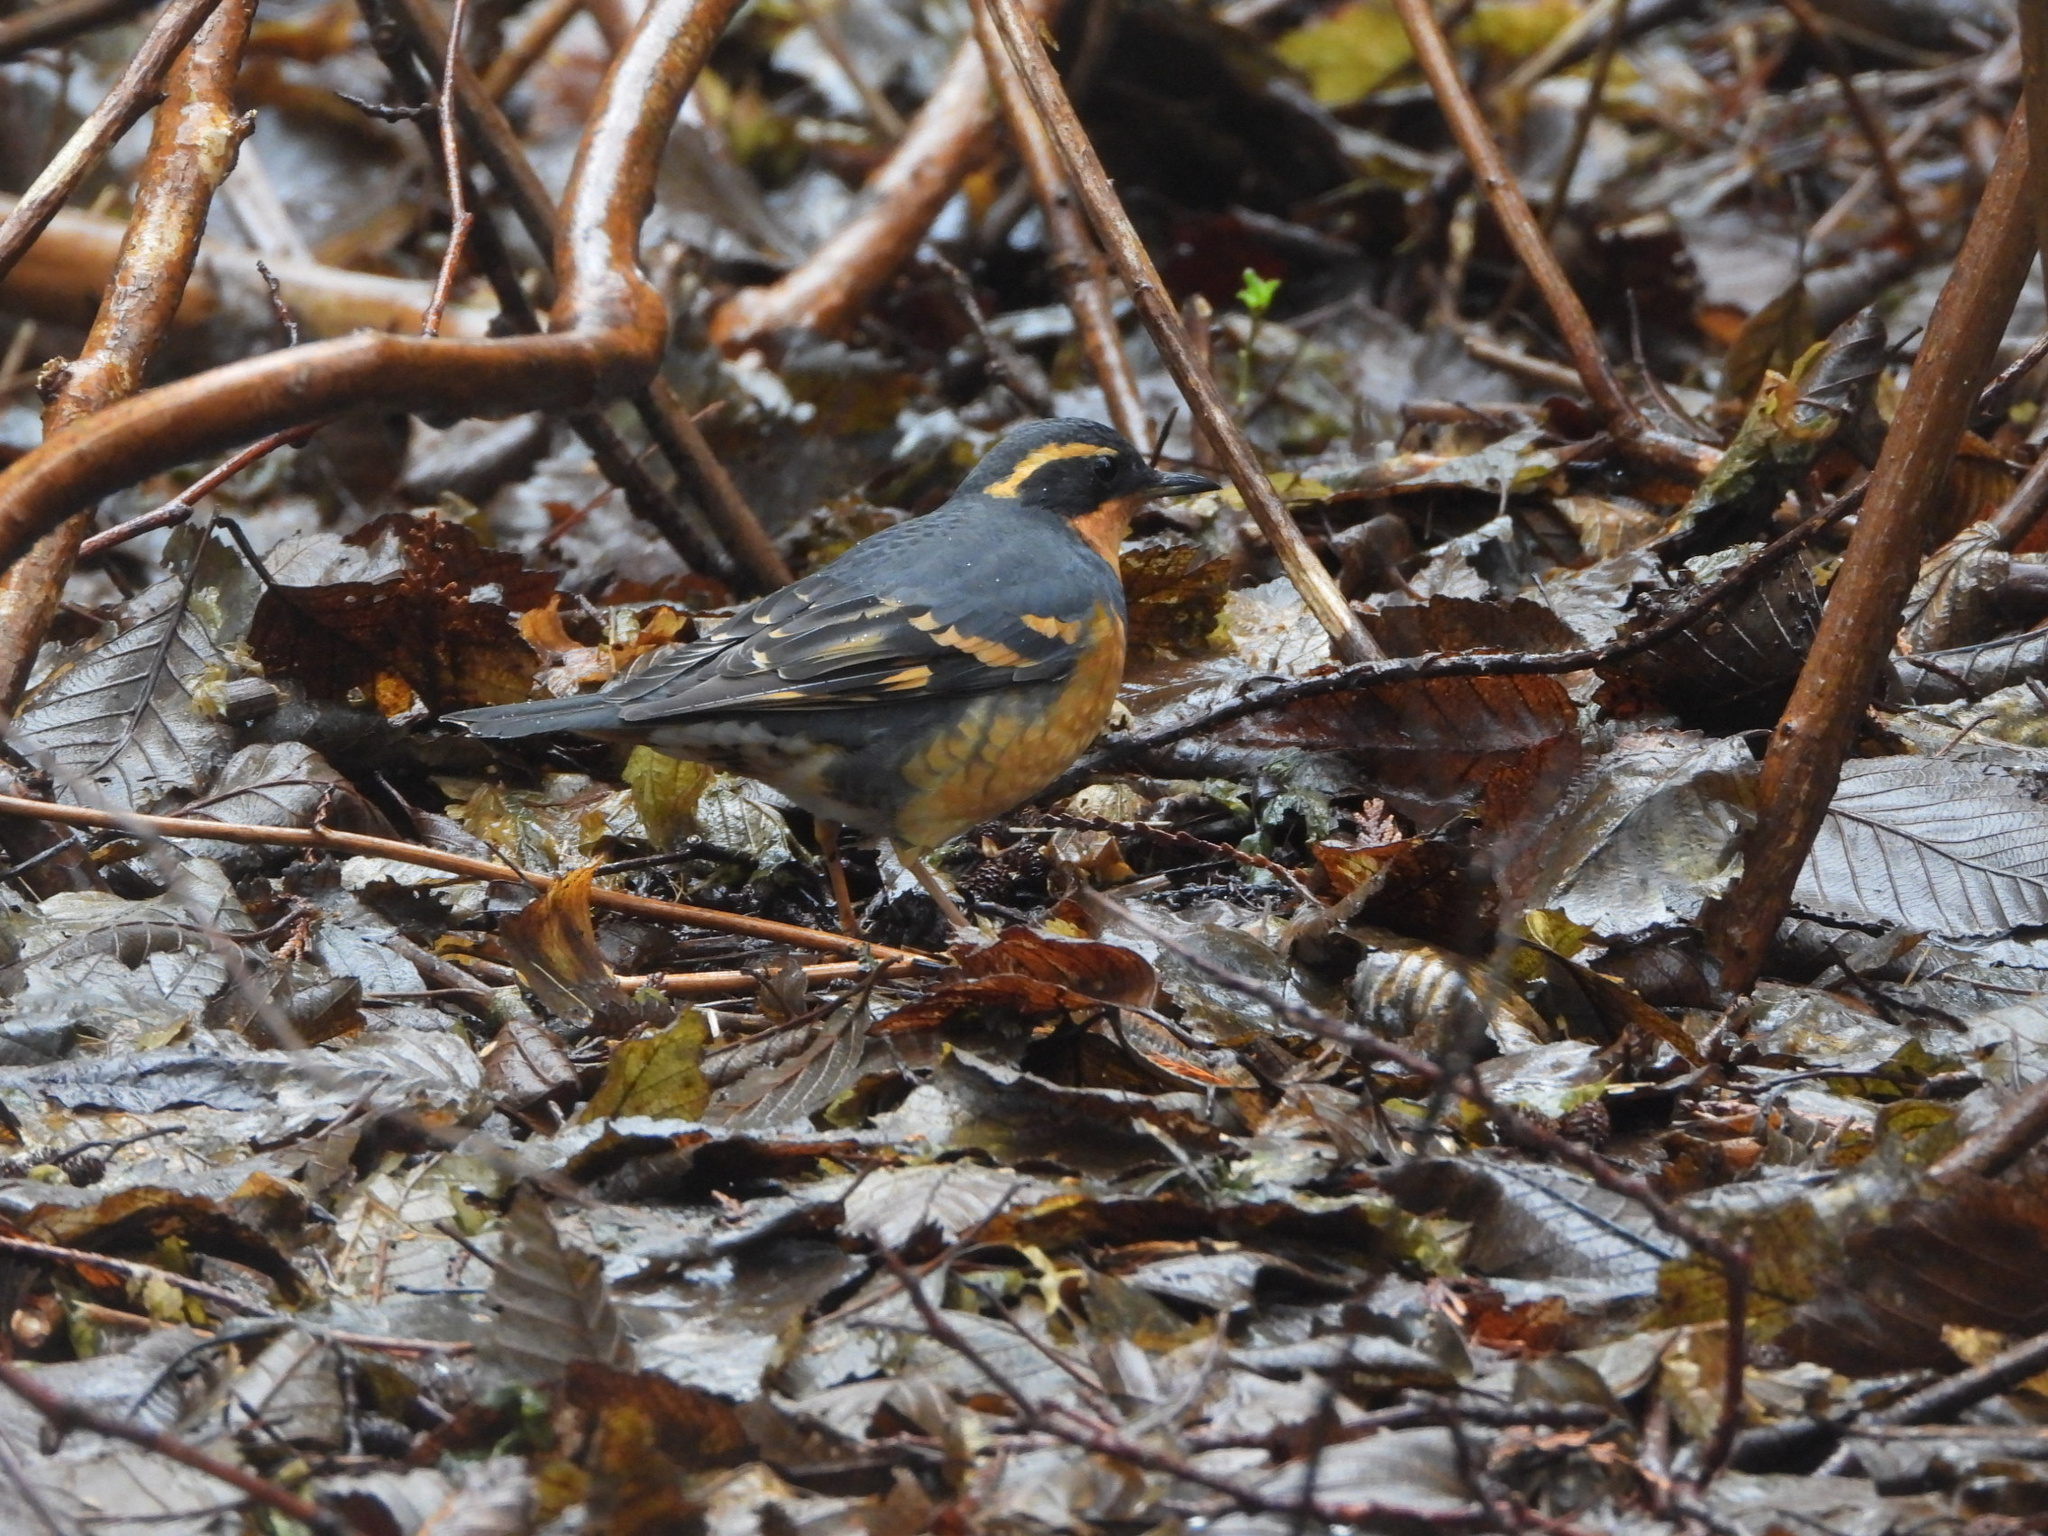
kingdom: Animalia
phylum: Chordata
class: Aves
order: Passeriformes
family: Turdidae
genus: Ixoreus
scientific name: Ixoreus naevius
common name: Varied thrush
